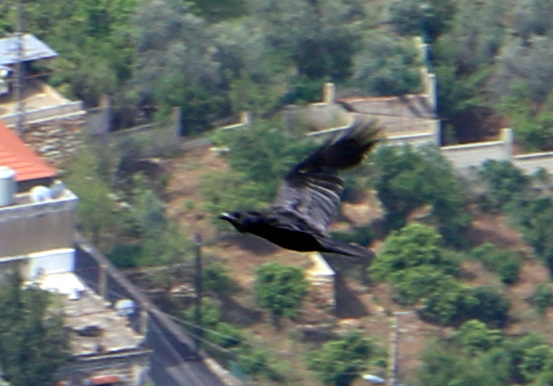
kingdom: Animalia
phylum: Chordata
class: Aves
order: Passeriformes
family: Corvidae
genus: Corvus
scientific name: Corvus corax
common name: Common raven
